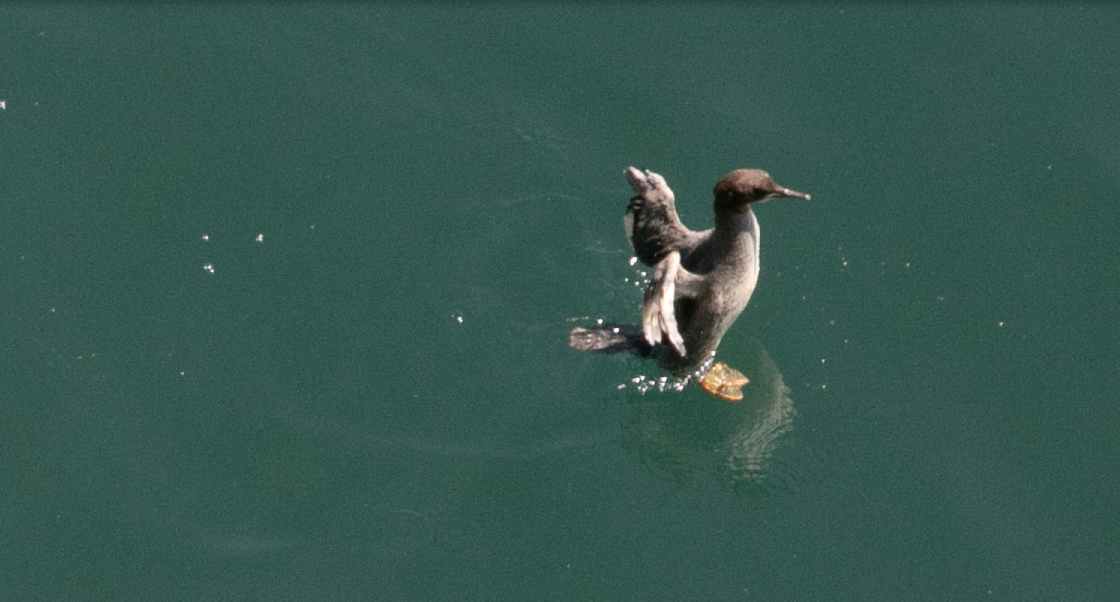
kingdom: Animalia
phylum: Chordata
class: Aves
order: Anseriformes
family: Anatidae
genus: Mergus
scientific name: Mergus merganser
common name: Common merganser
